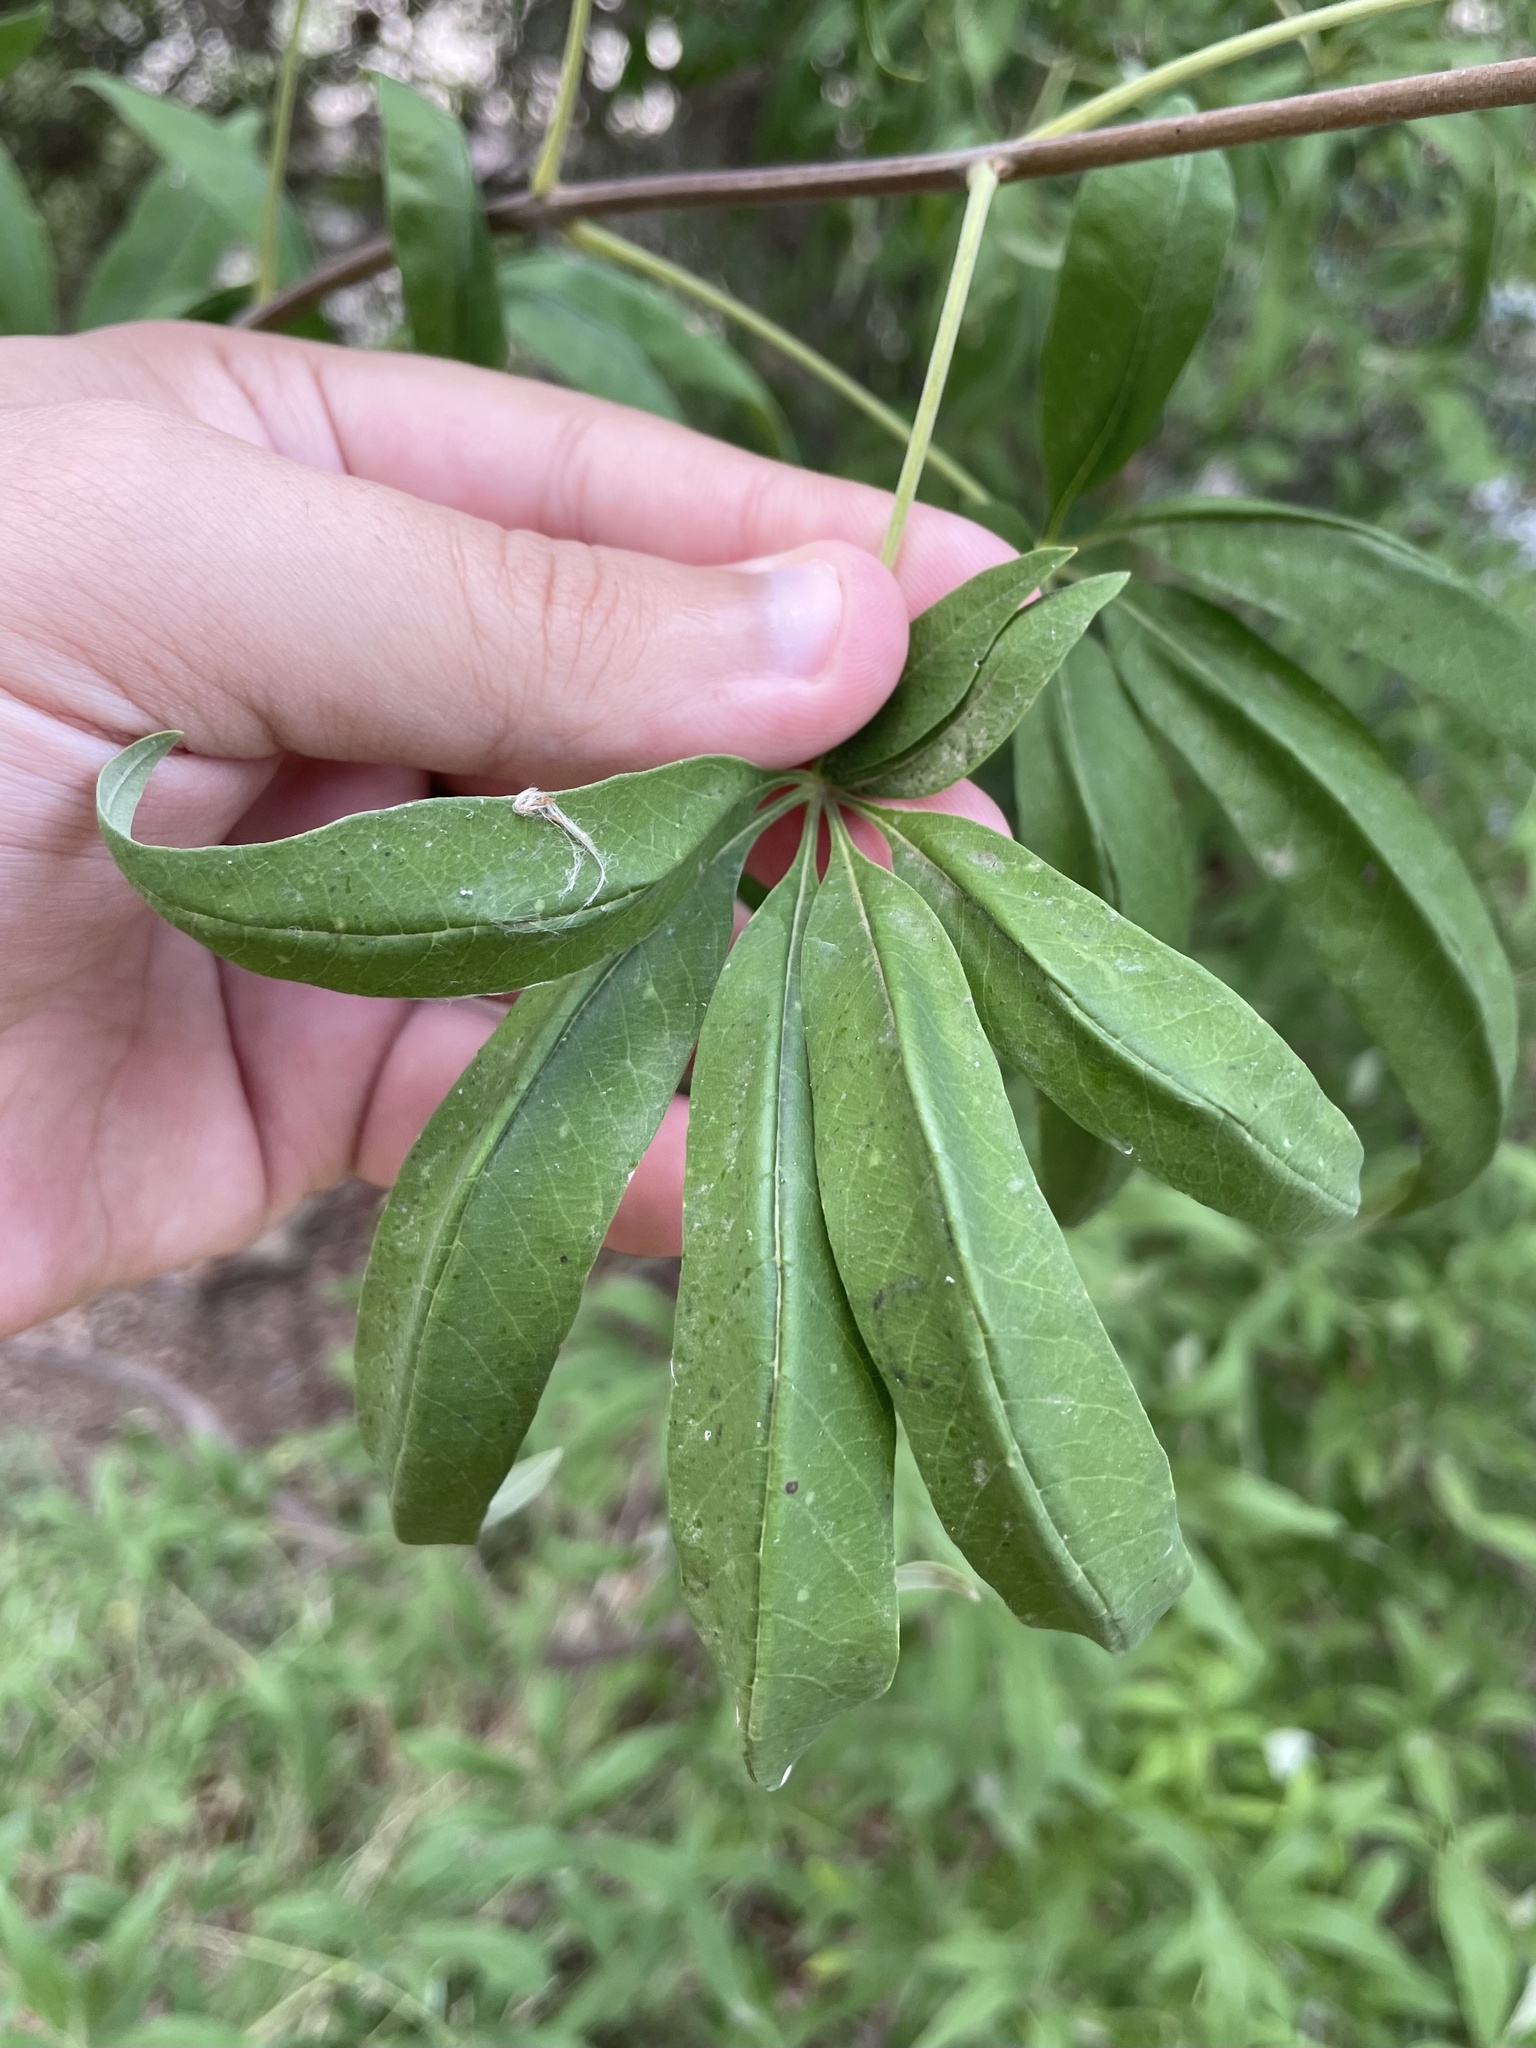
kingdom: Plantae
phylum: Tracheophyta
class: Magnoliopsida
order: Lamiales
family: Lamiaceae
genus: Vitex
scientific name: Vitex agnus-castus
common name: Chasteberry
